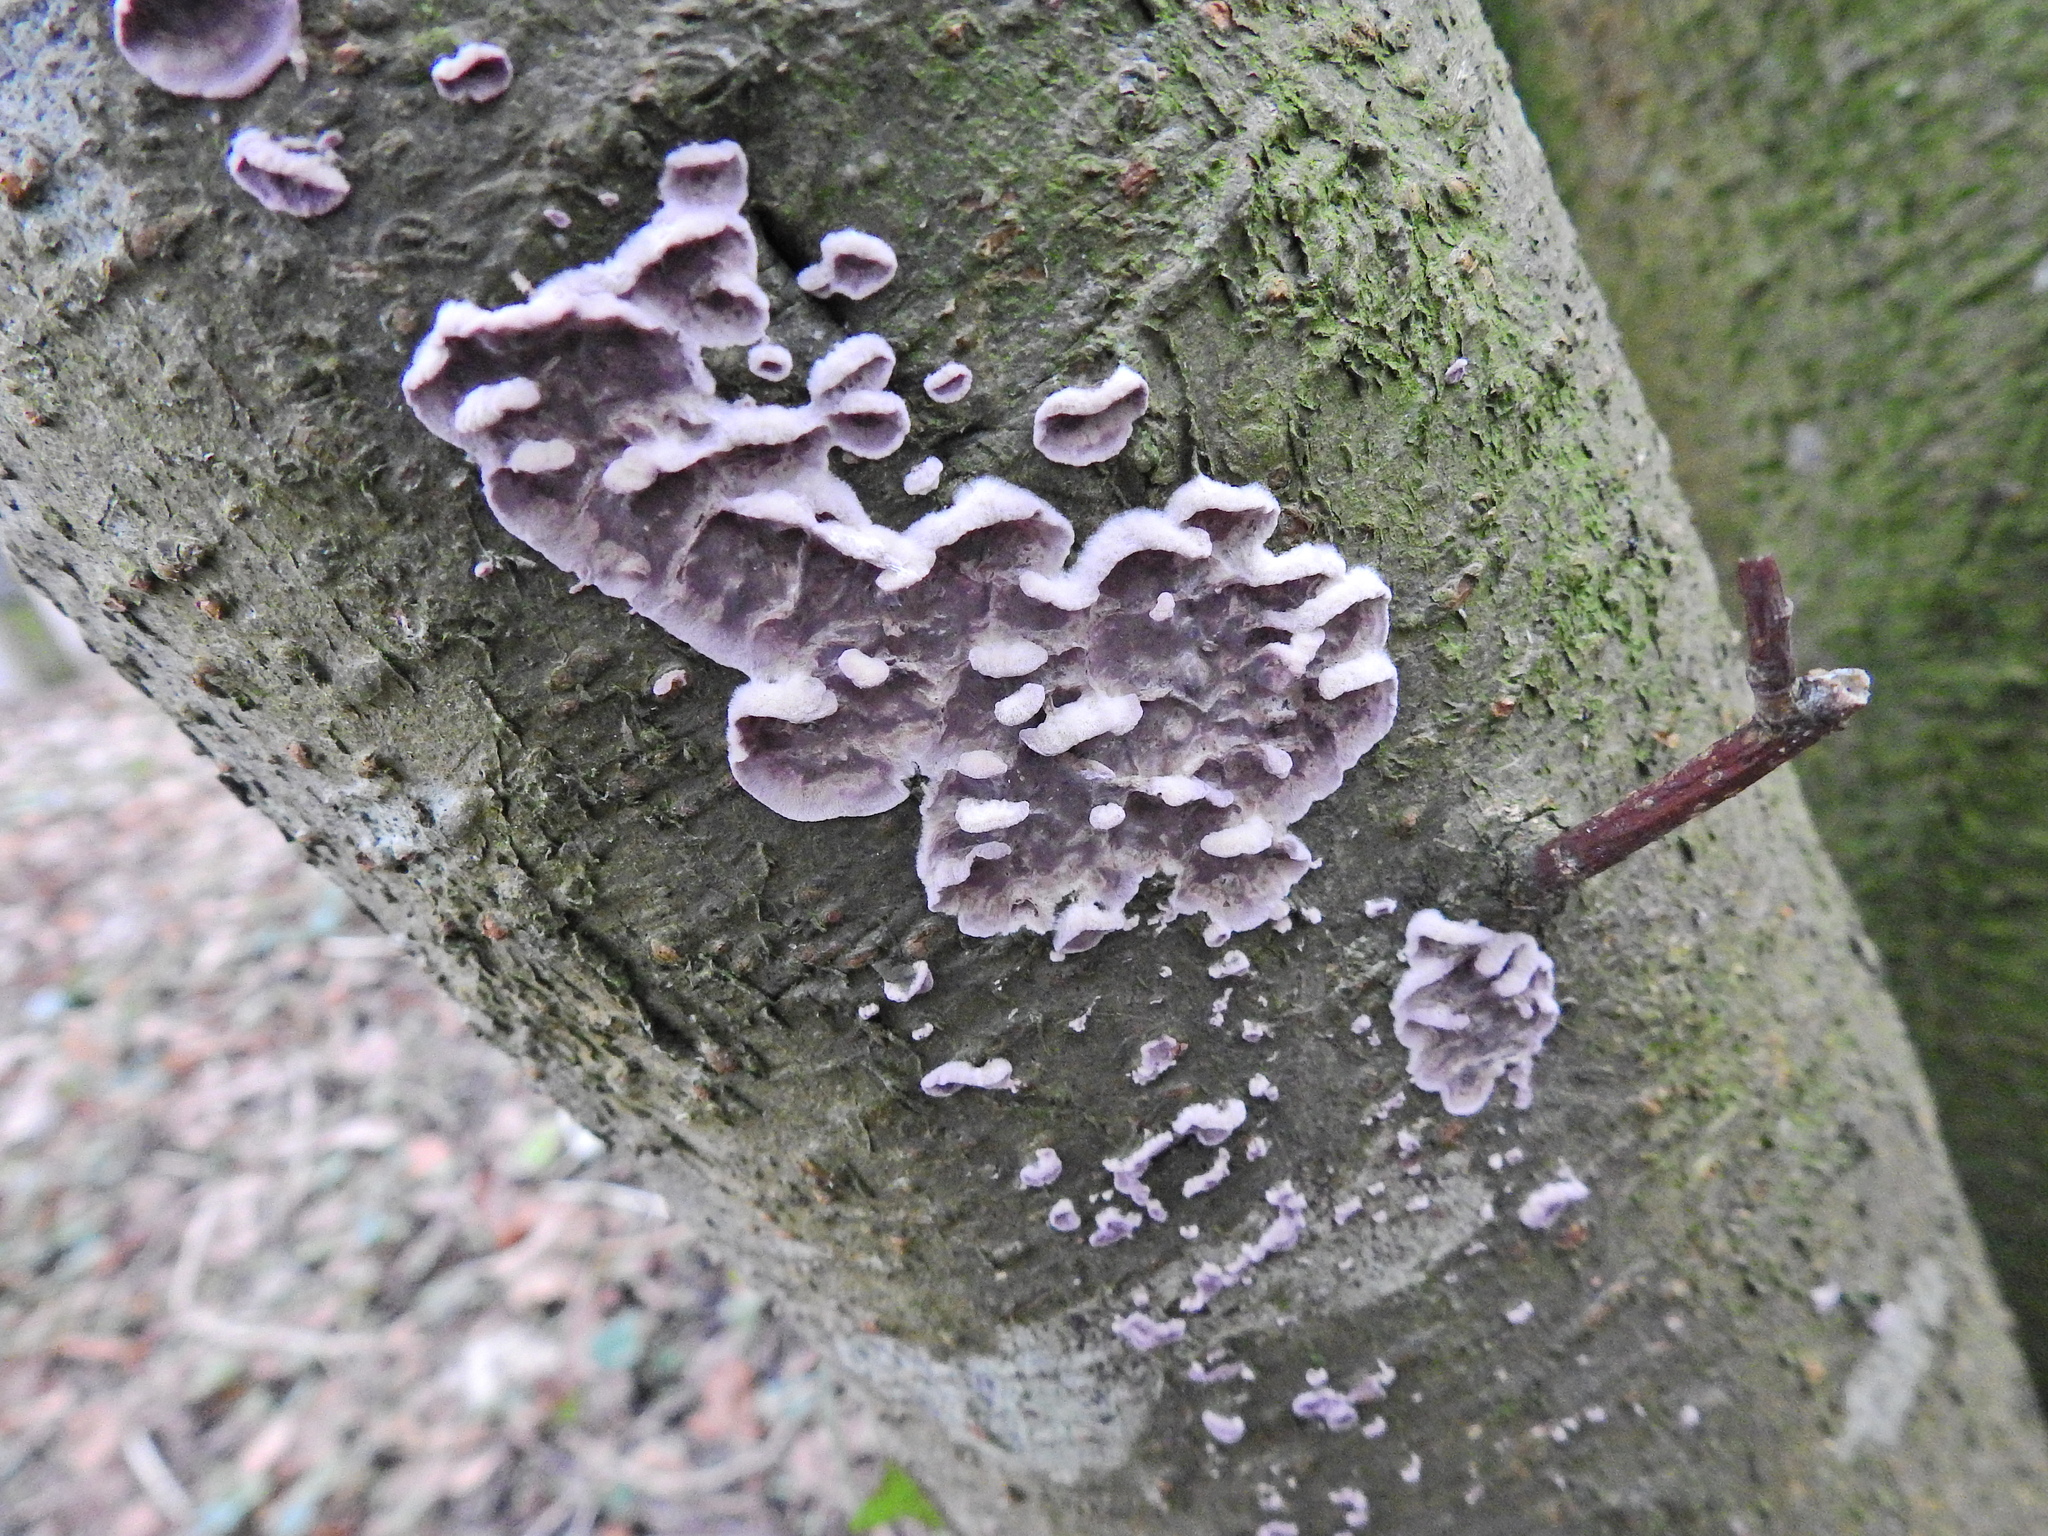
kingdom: Fungi
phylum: Basidiomycota
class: Agaricomycetes
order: Agaricales
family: Cyphellaceae
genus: Chondrostereum
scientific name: Chondrostereum purpureum
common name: Silver leaf disease
